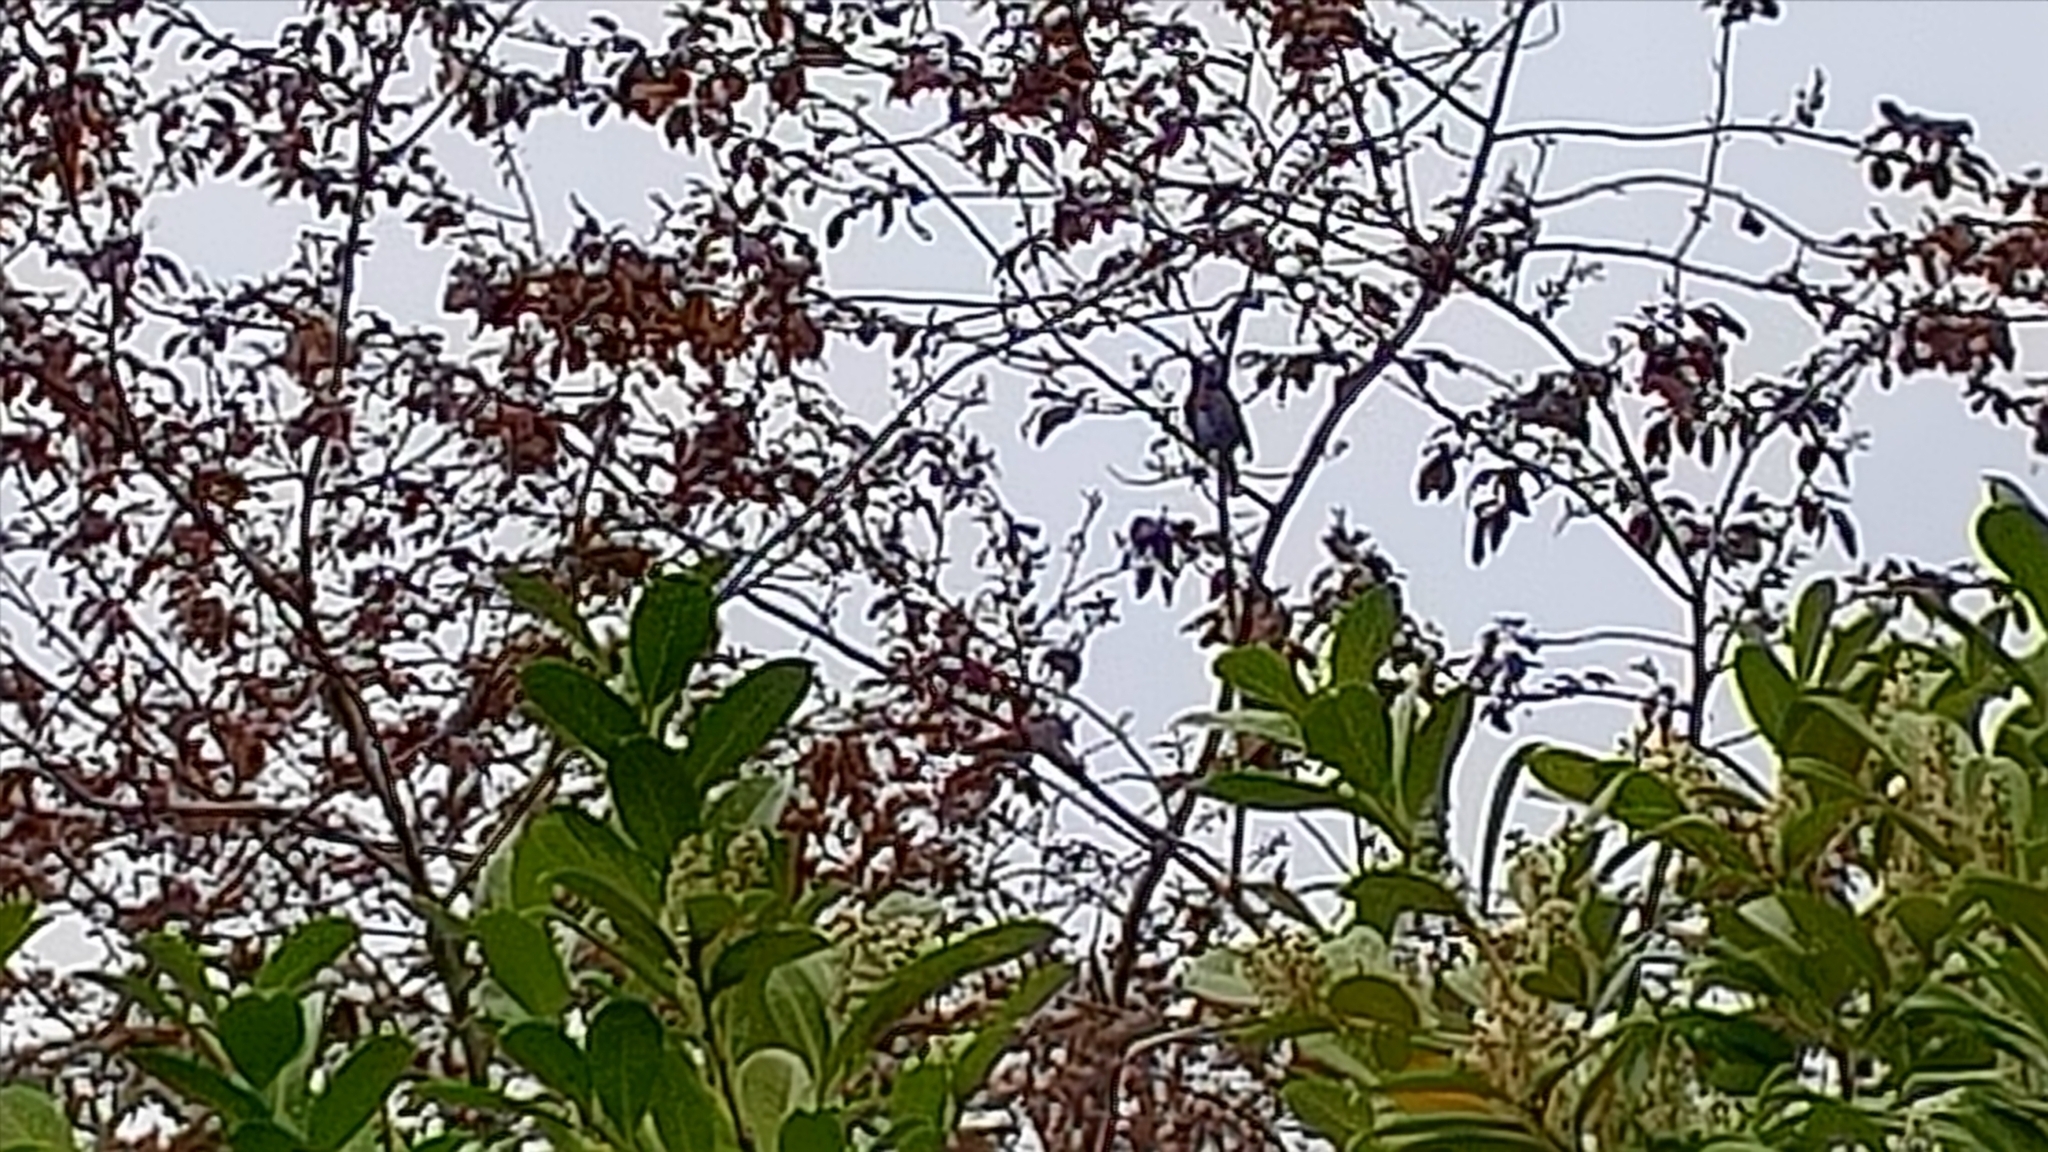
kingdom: Animalia
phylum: Chordata
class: Aves
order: Passeriformes
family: Muscicapidae
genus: Erithacus
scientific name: Erithacus rubecula
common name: European robin
